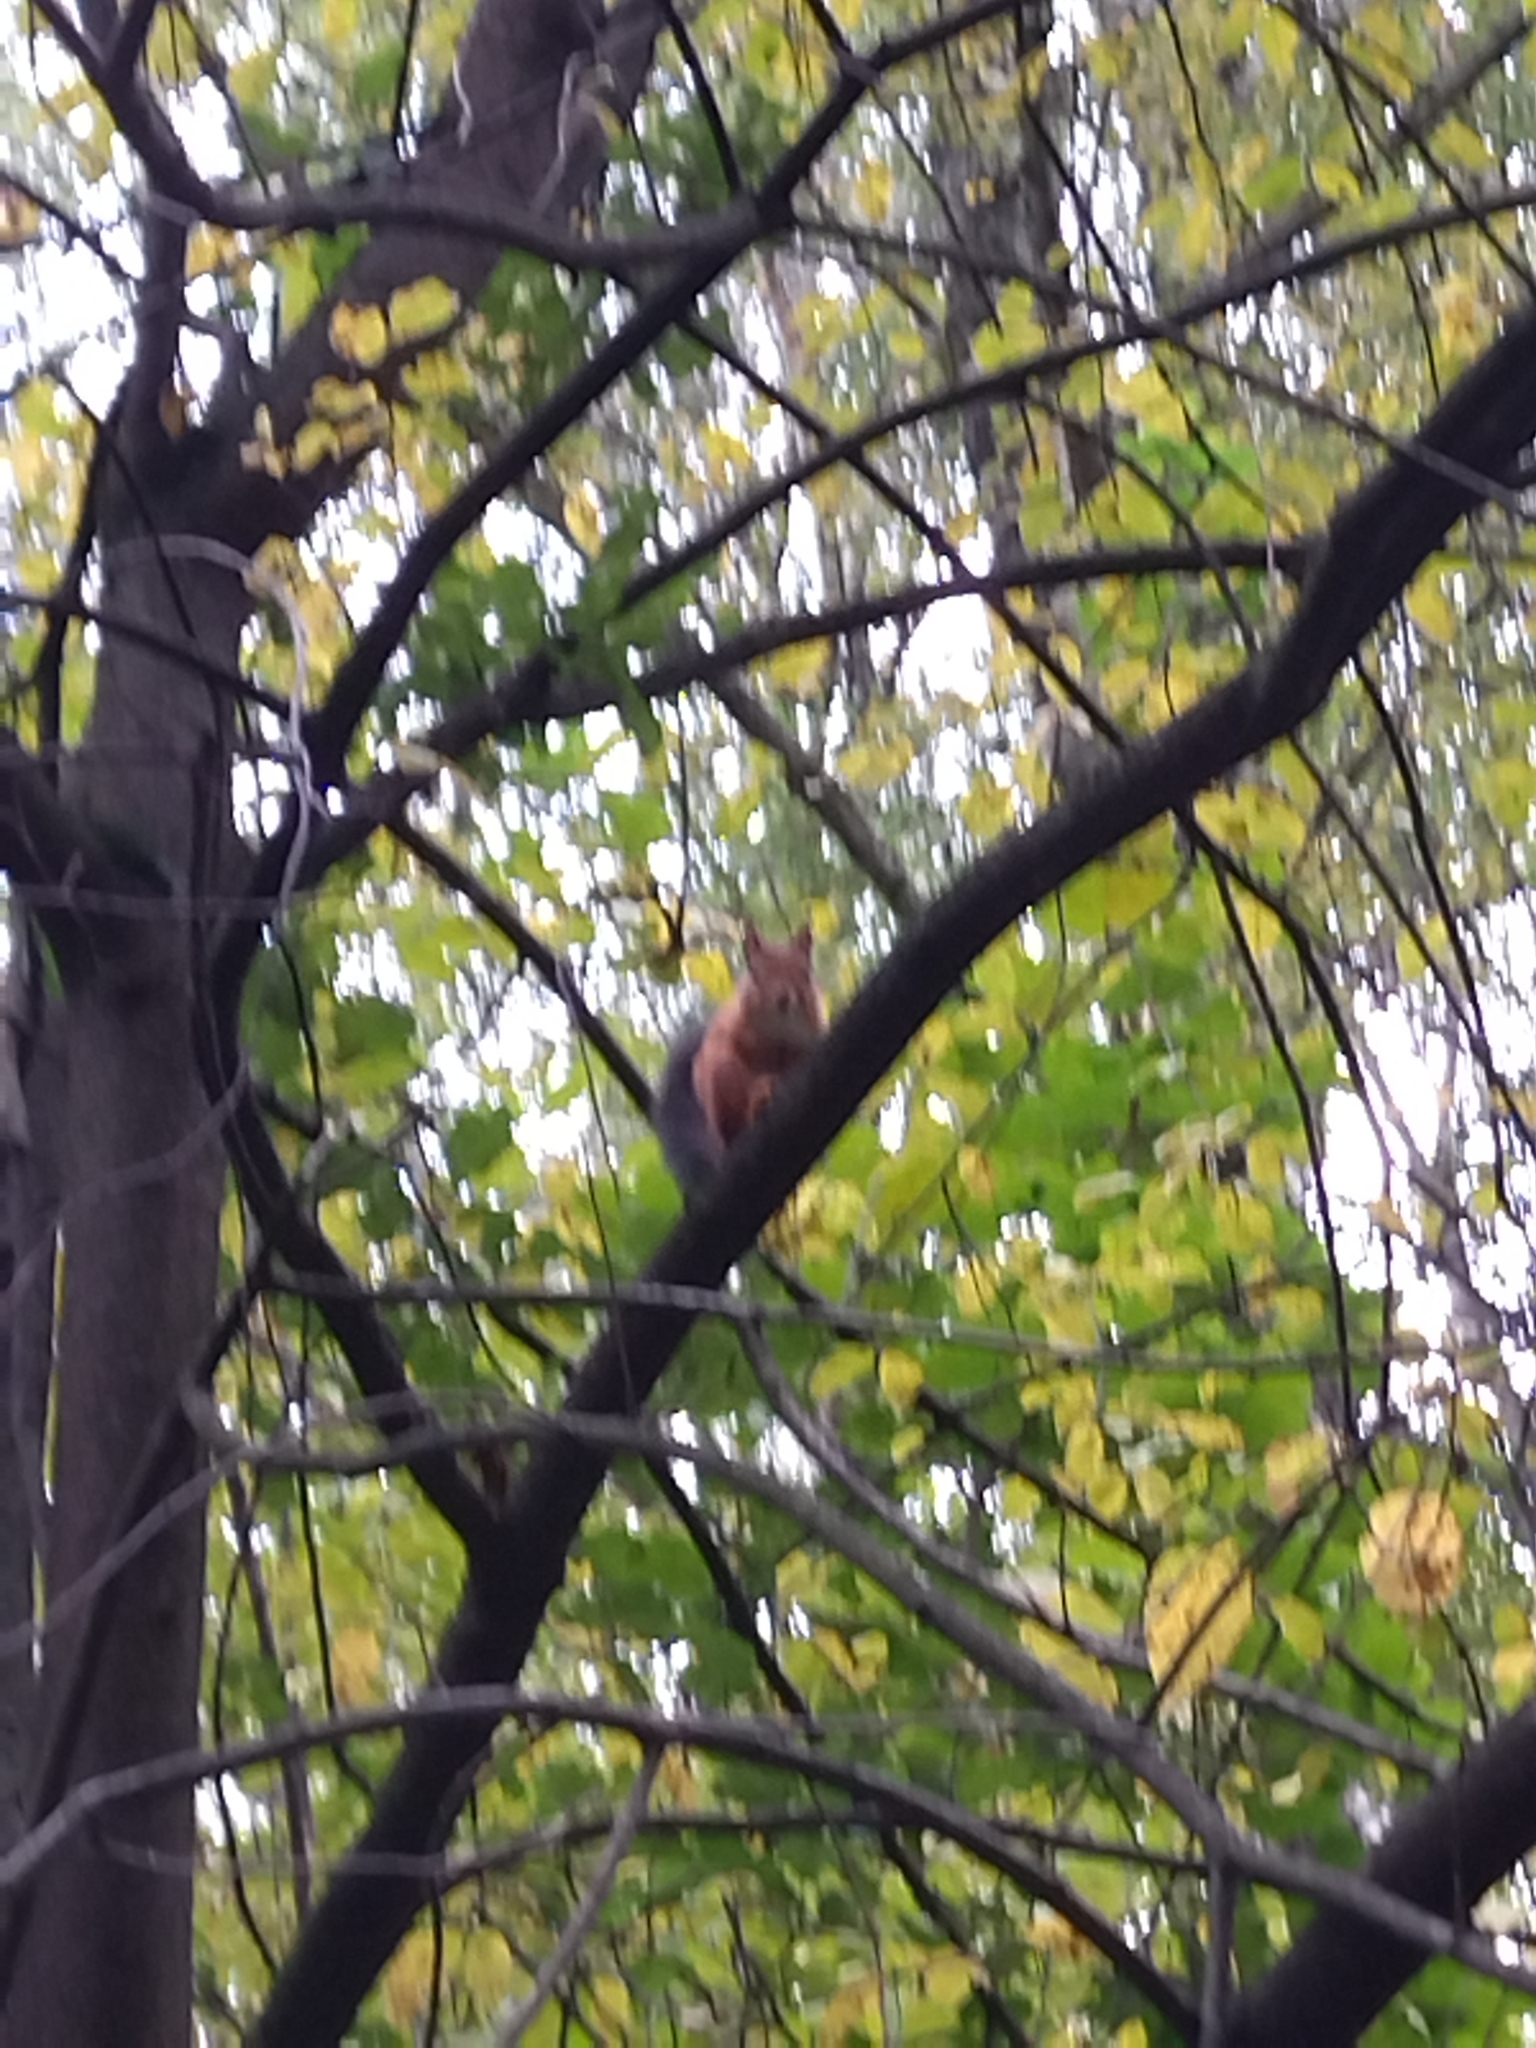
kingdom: Animalia
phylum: Chordata
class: Mammalia
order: Rodentia
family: Sciuridae
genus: Sciurus
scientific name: Sciurus vulgaris
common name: Eurasian red squirrel
